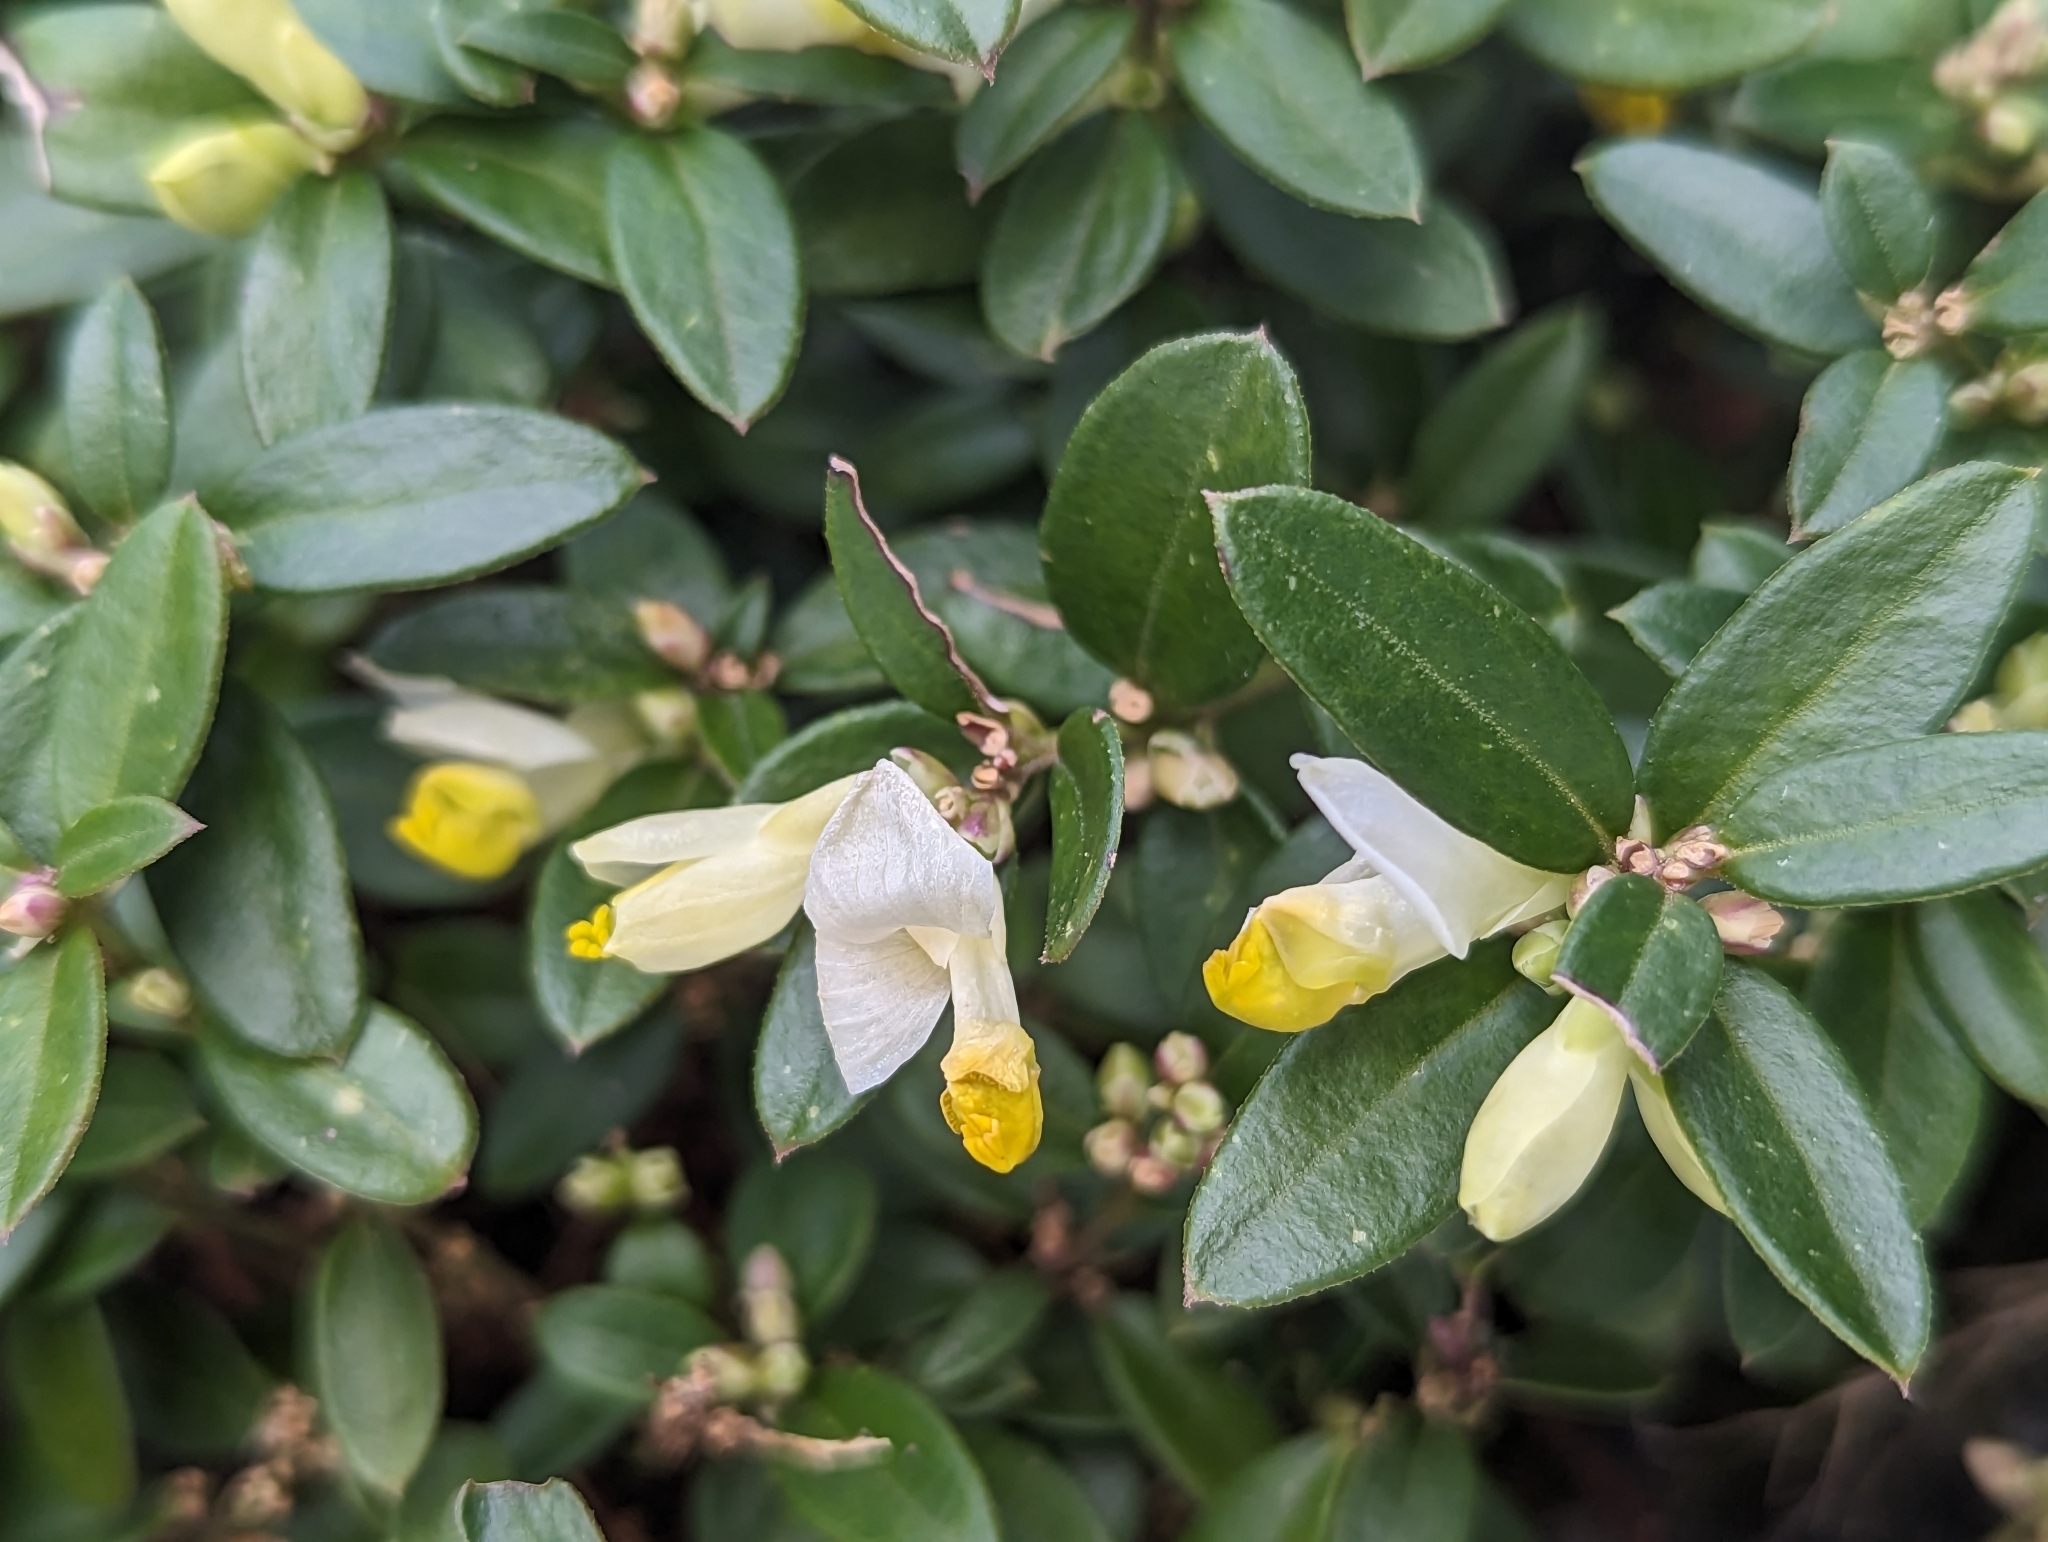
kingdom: Plantae
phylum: Tracheophyta
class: Magnoliopsida
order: Fabales
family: Polygalaceae
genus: Polygaloides
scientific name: Polygaloides chamaebuxus
